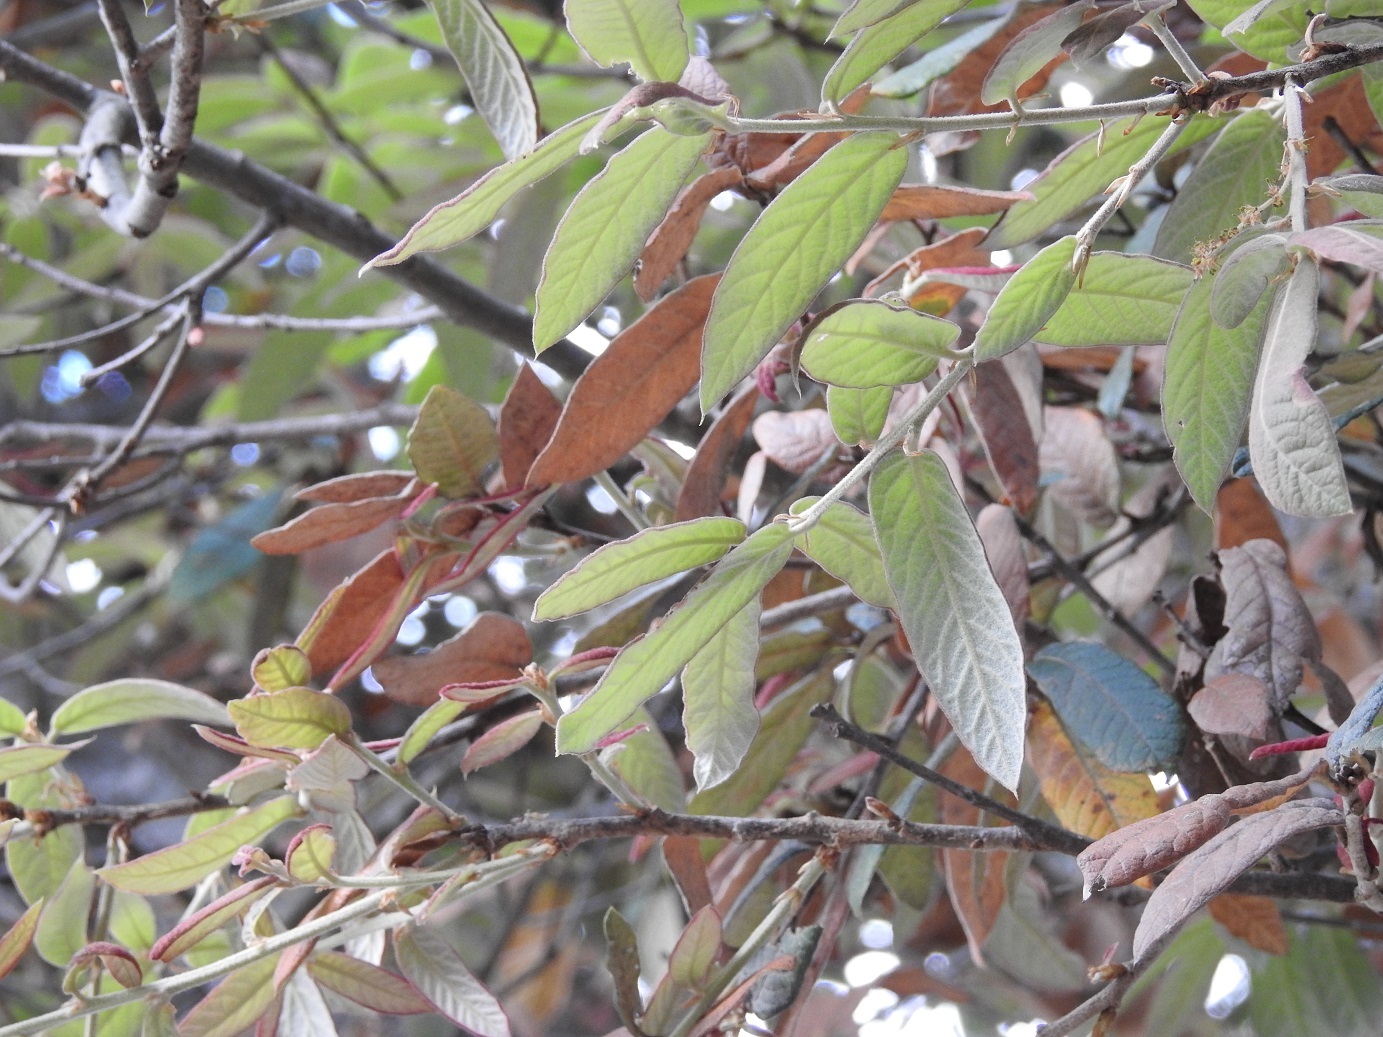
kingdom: Plantae
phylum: Tracheophyta
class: Magnoliopsida
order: Fagales
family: Fagaceae
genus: Quercus
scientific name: Quercus dysophylla
